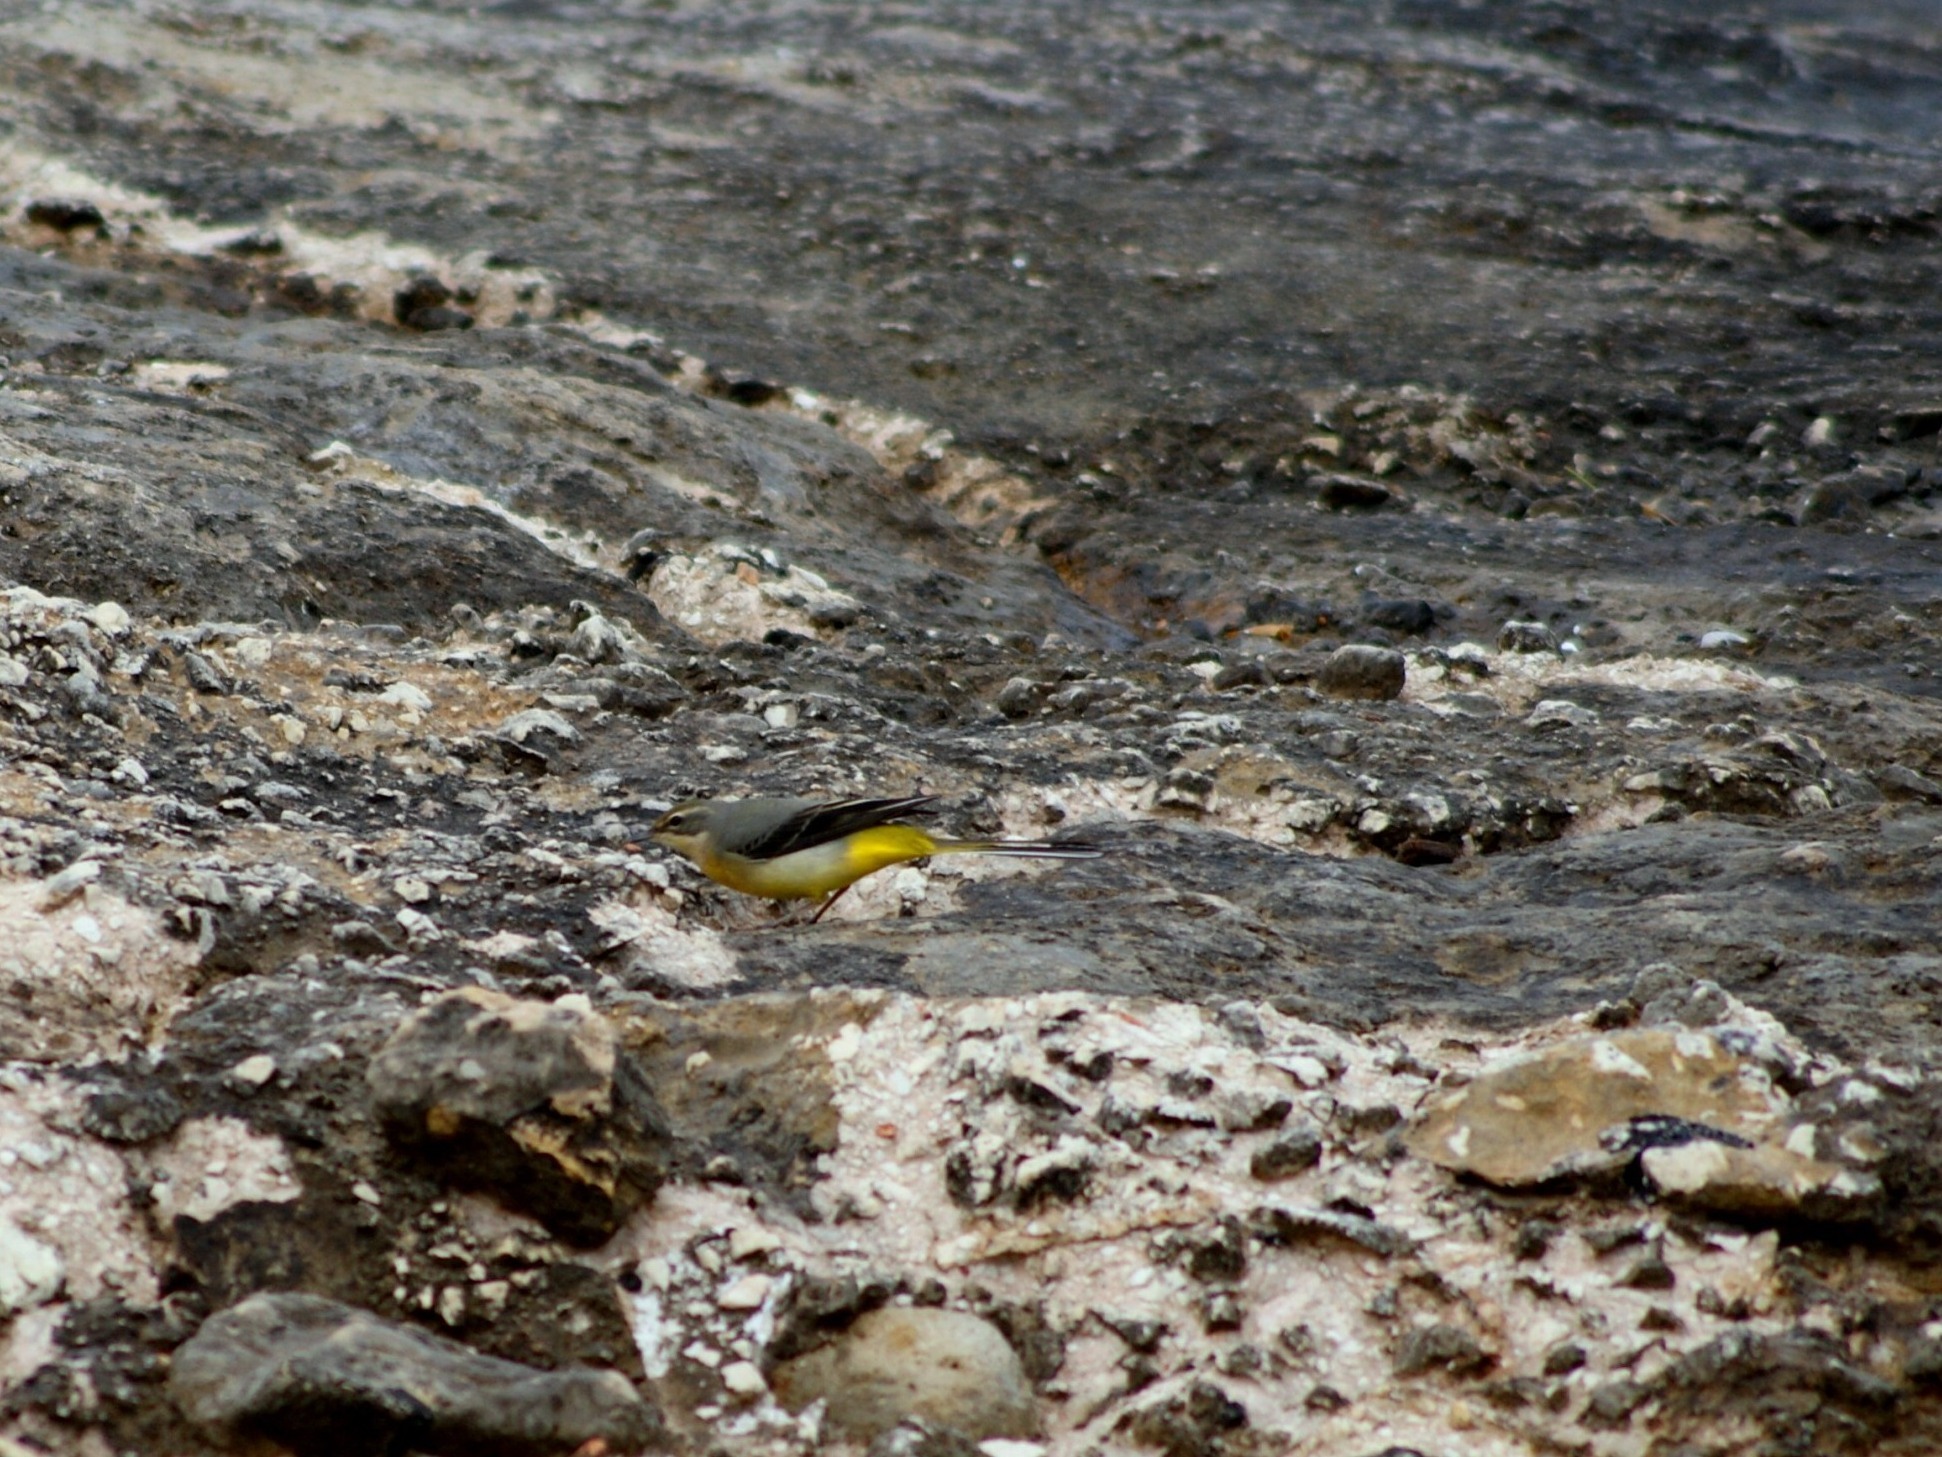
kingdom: Animalia
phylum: Chordata
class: Aves
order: Passeriformes
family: Motacillidae
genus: Motacilla
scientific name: Motacilla cinerea
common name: Grey wagtail
